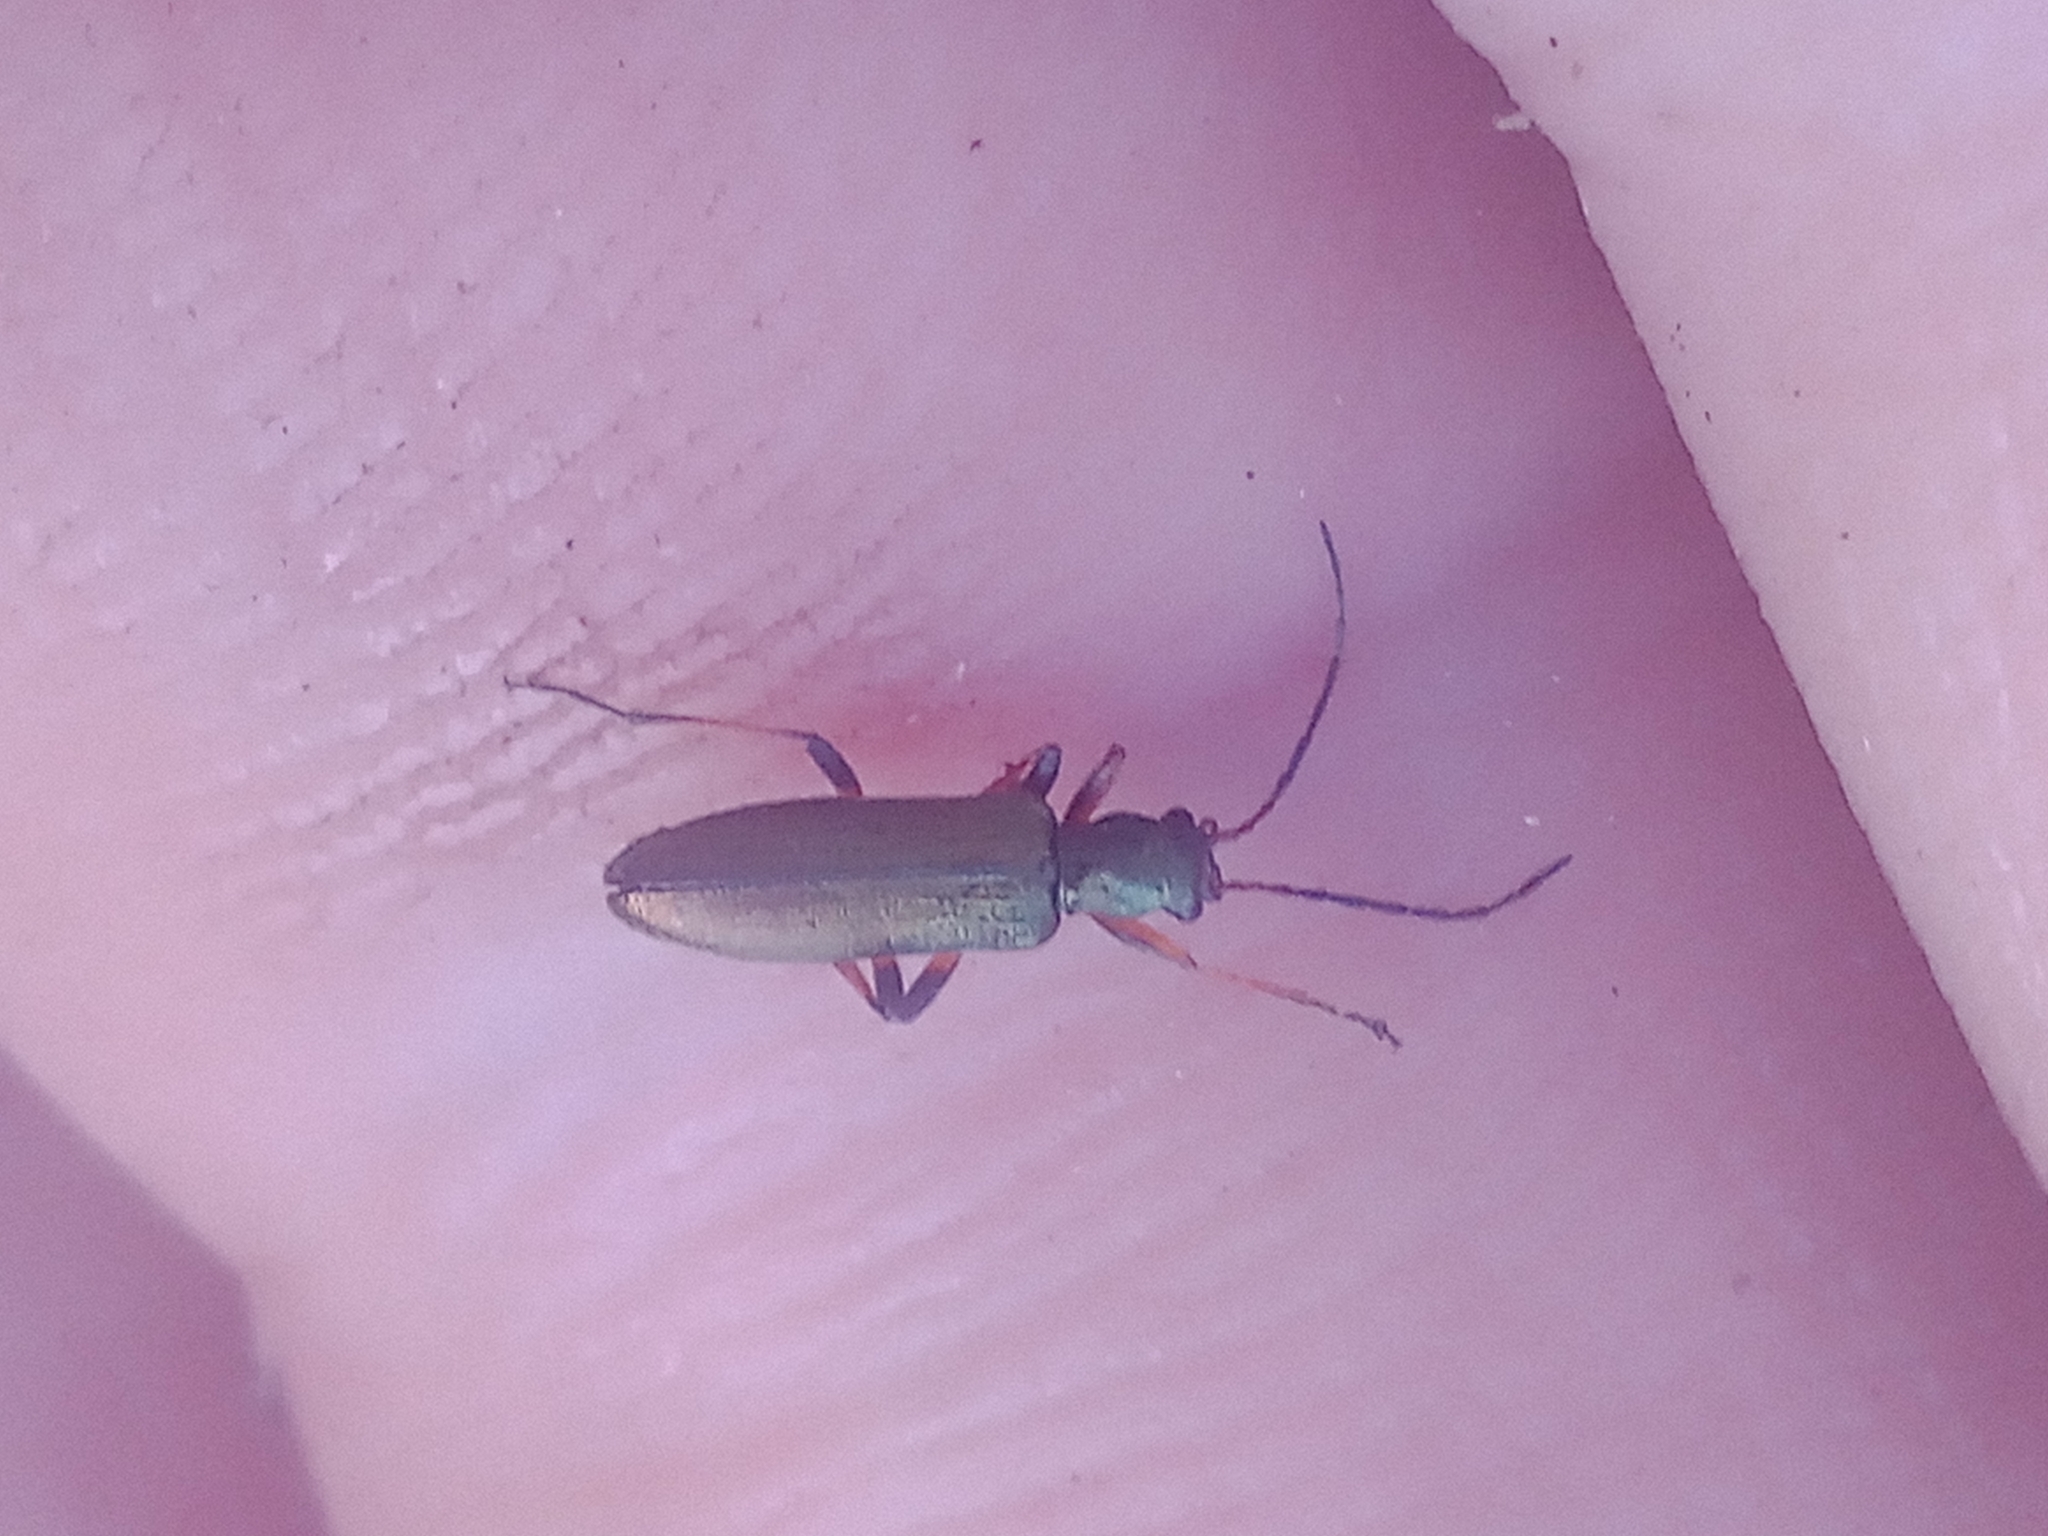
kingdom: Animalia
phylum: Arthropoda
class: Insecta
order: Coleoptera
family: Oedemeridae
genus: Chrysanthia
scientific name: Chrysanthia geniculata
